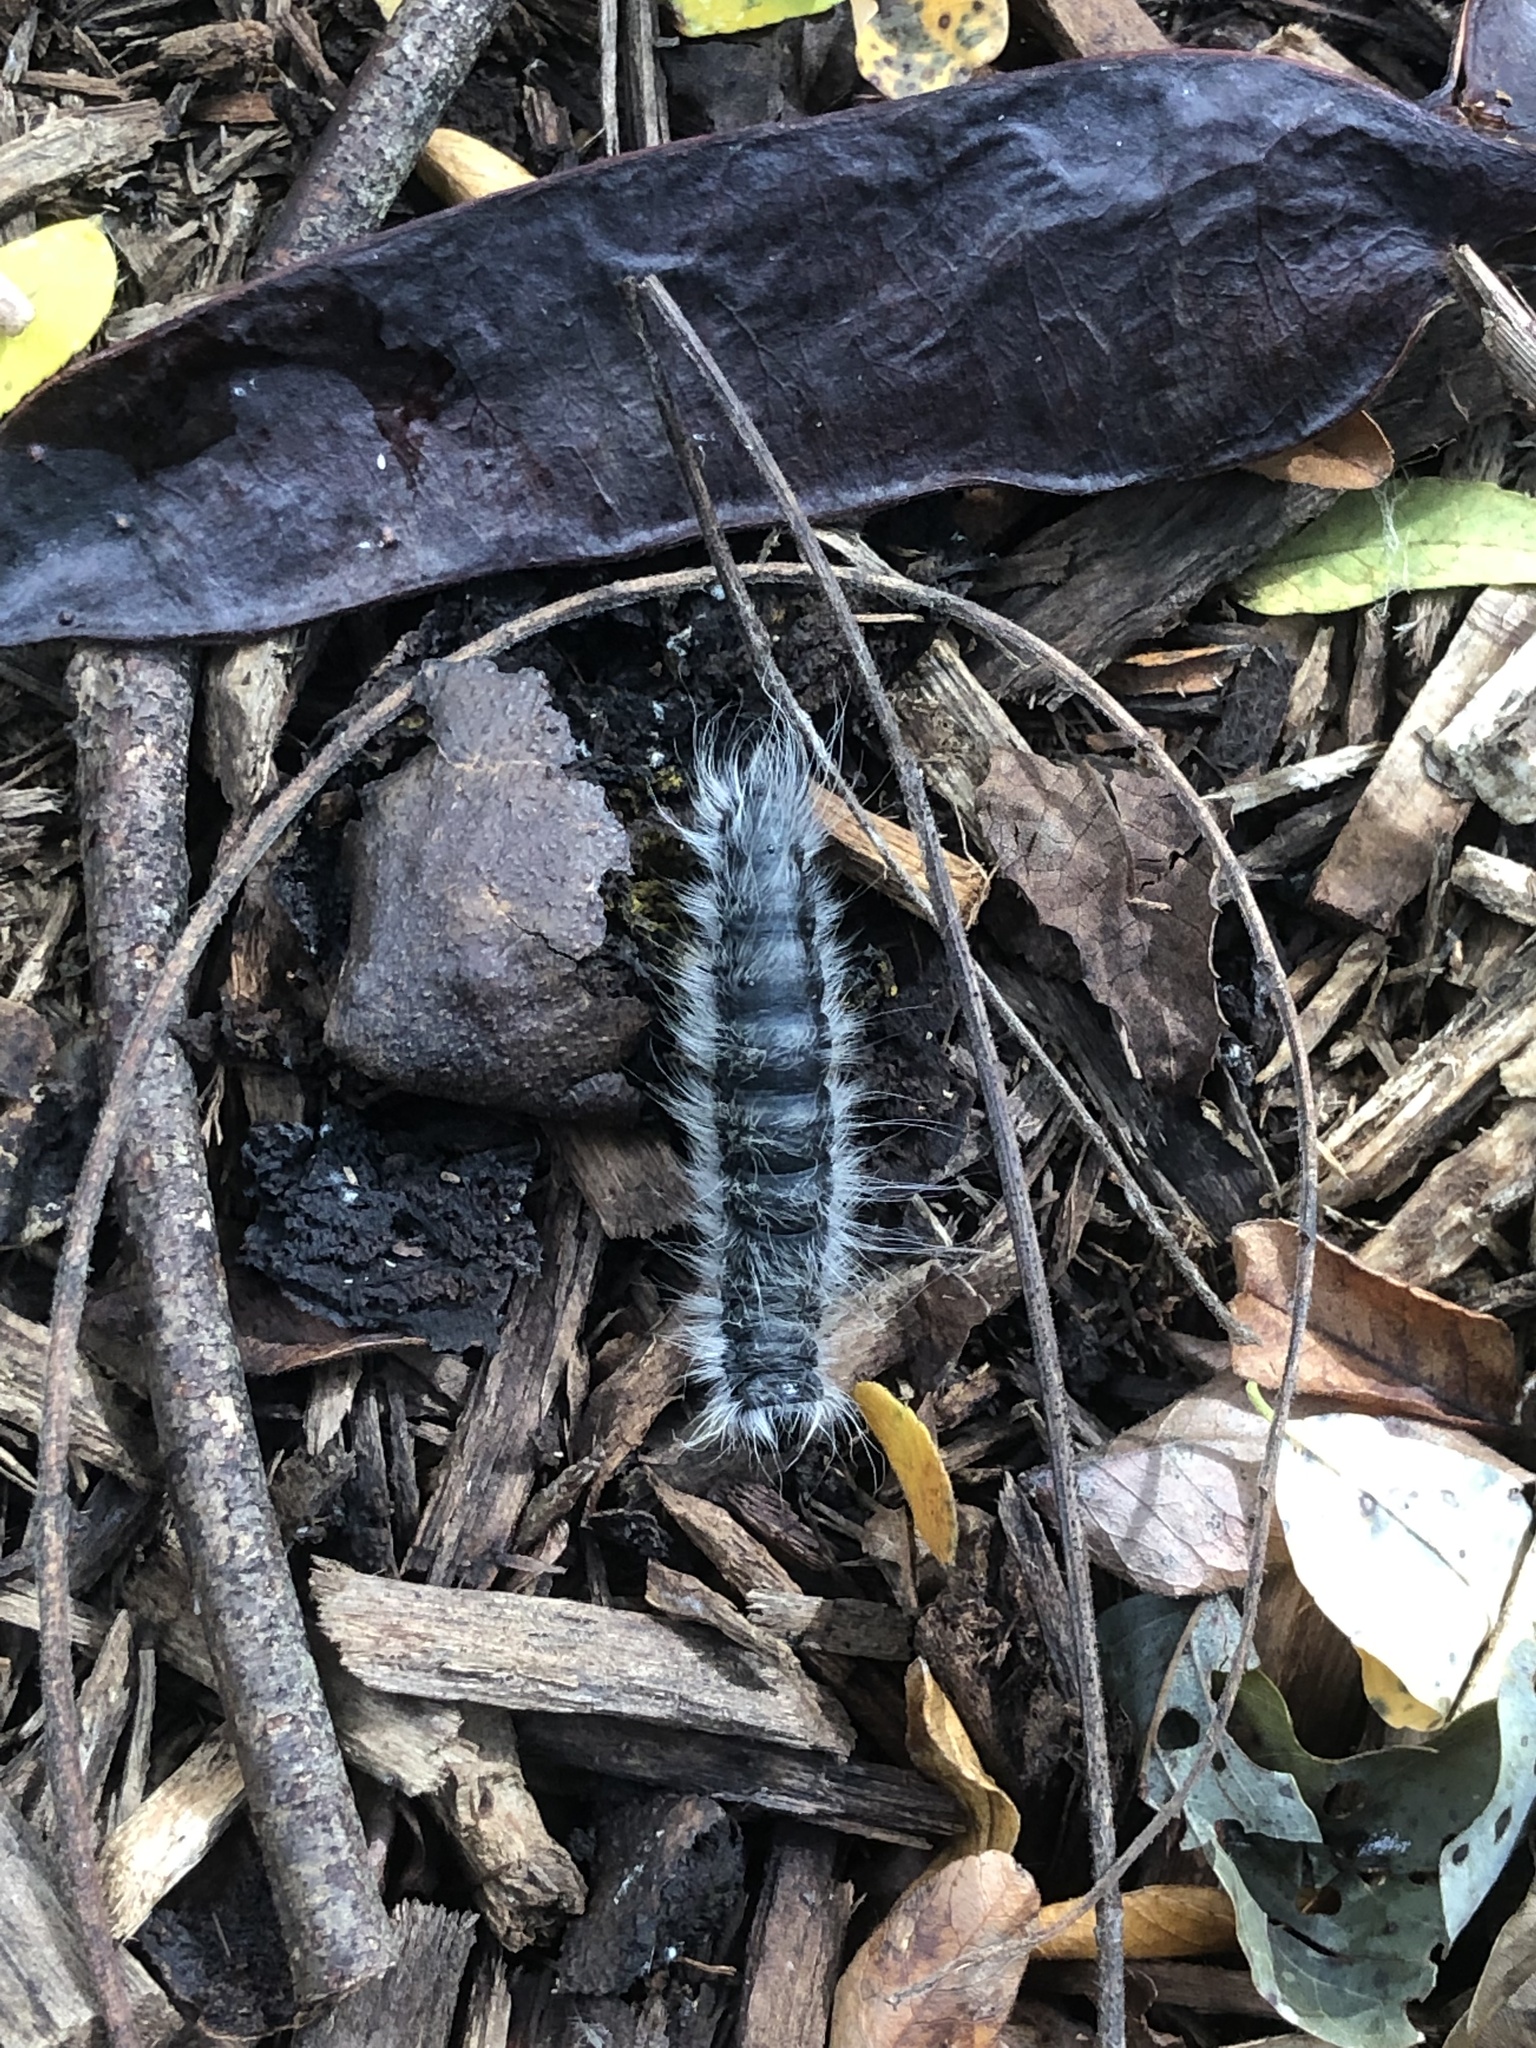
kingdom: Animalia
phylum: Arthropoda
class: Insecta
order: Lepidoptera
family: Notodontidae
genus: Datana
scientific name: Datana integerrima
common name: Walnut caterpillar
